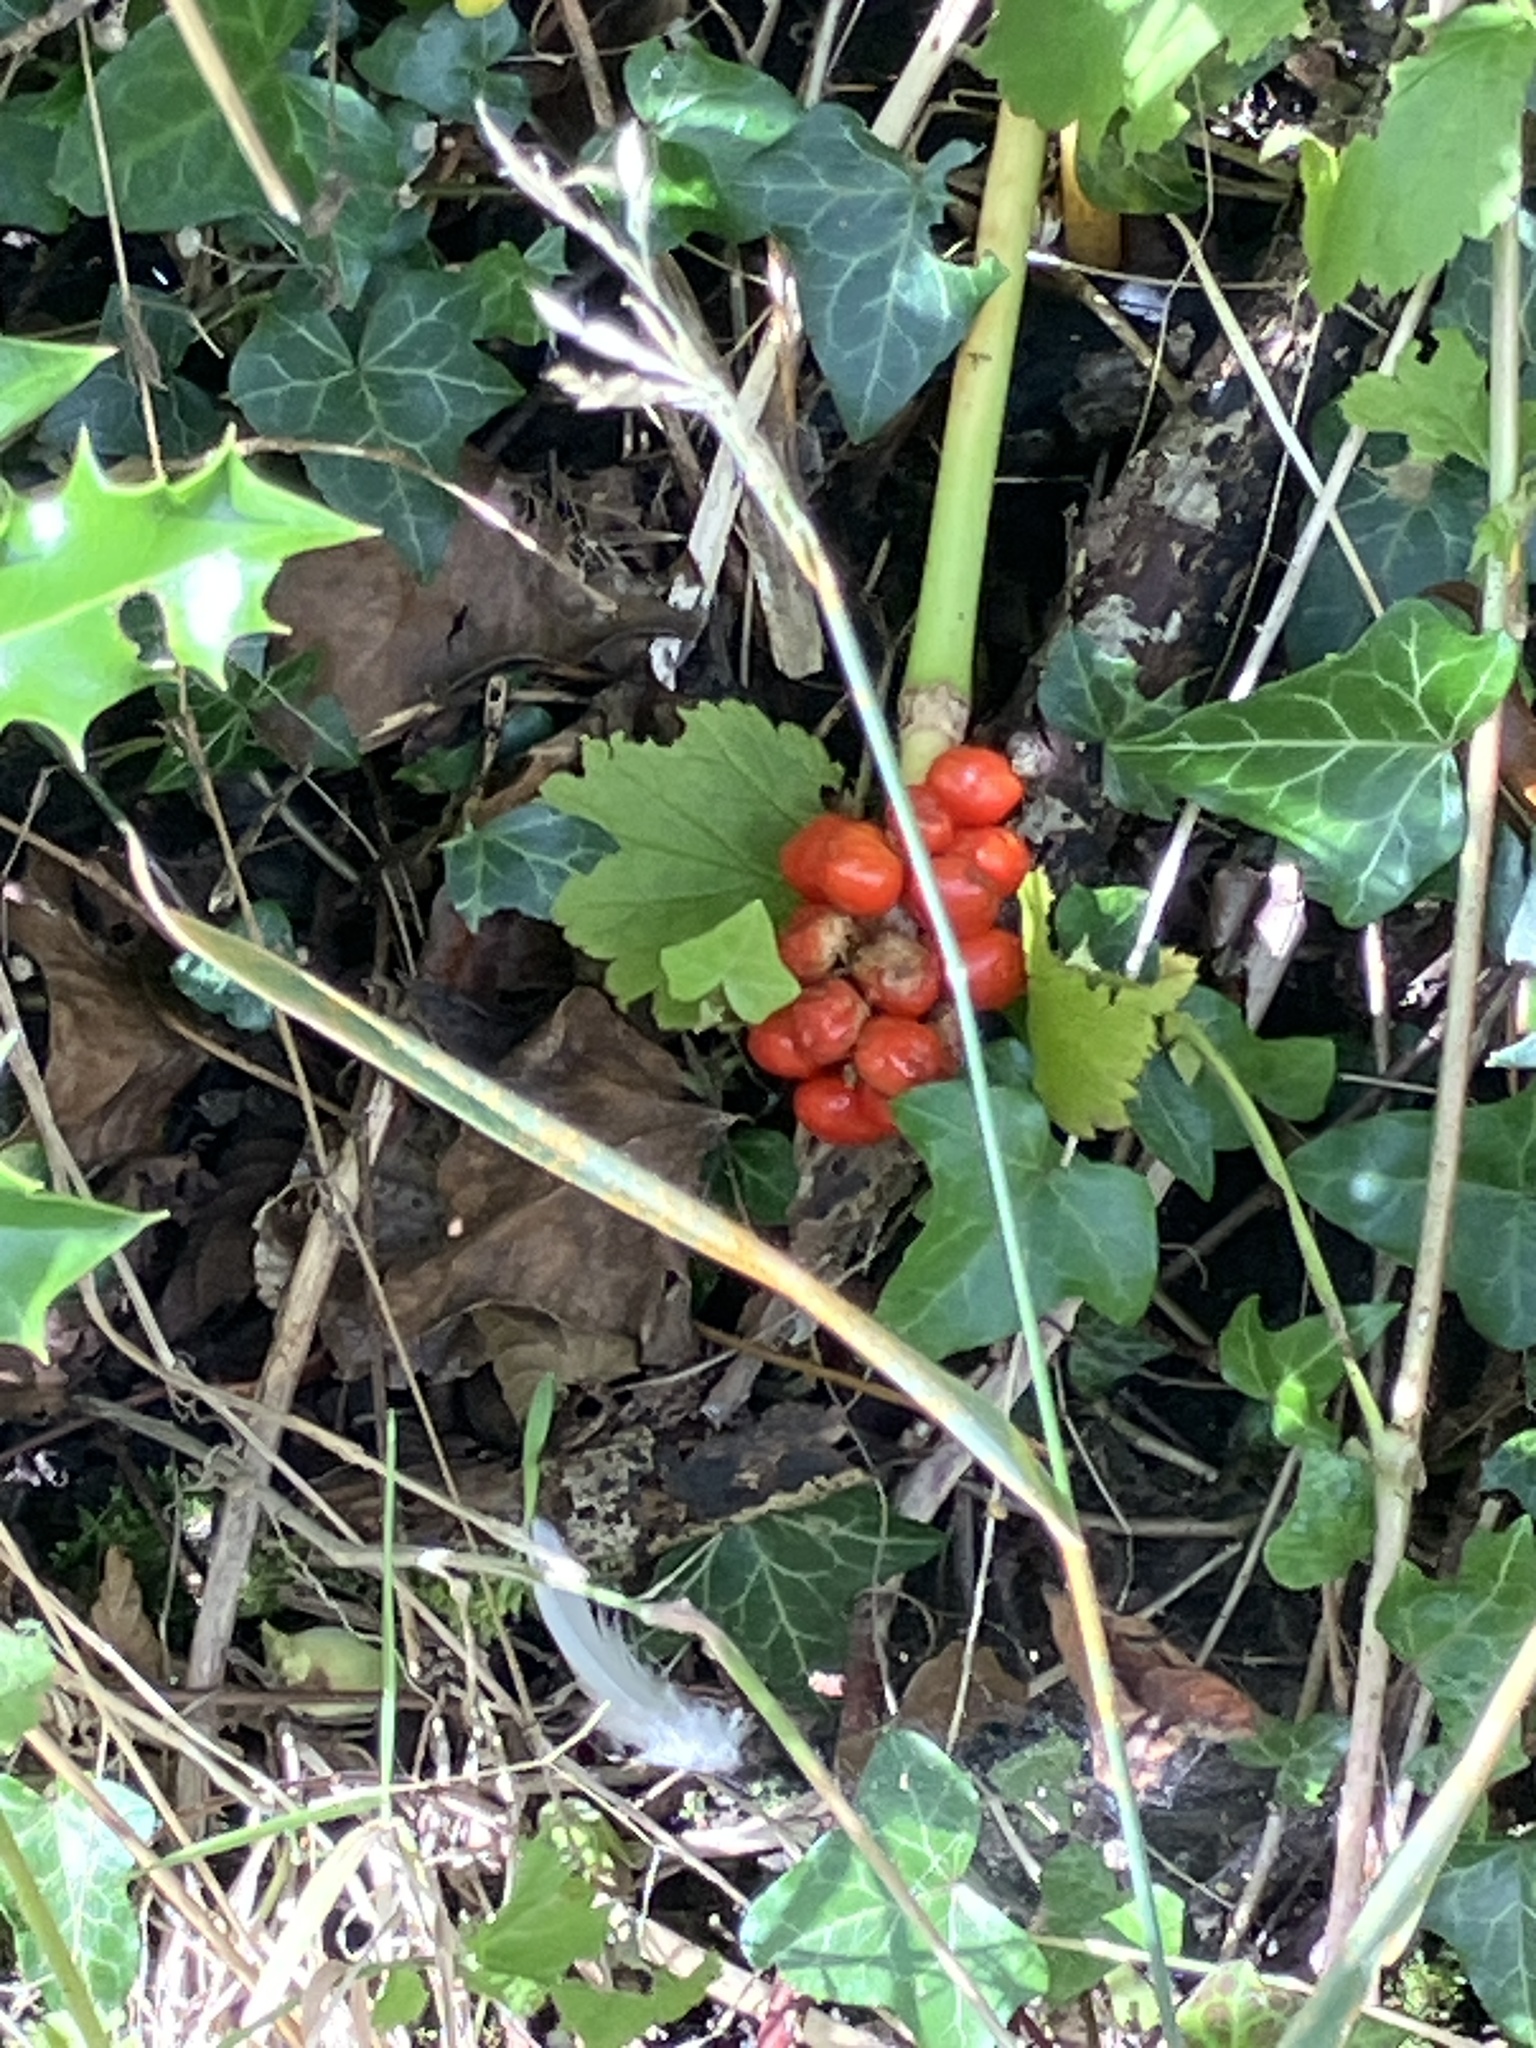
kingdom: Plantae
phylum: Tracheophyta
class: Liliopsida
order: Alismatales
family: Araceae
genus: Arum
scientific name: Arum maculatum
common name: Lords-and-ladies
